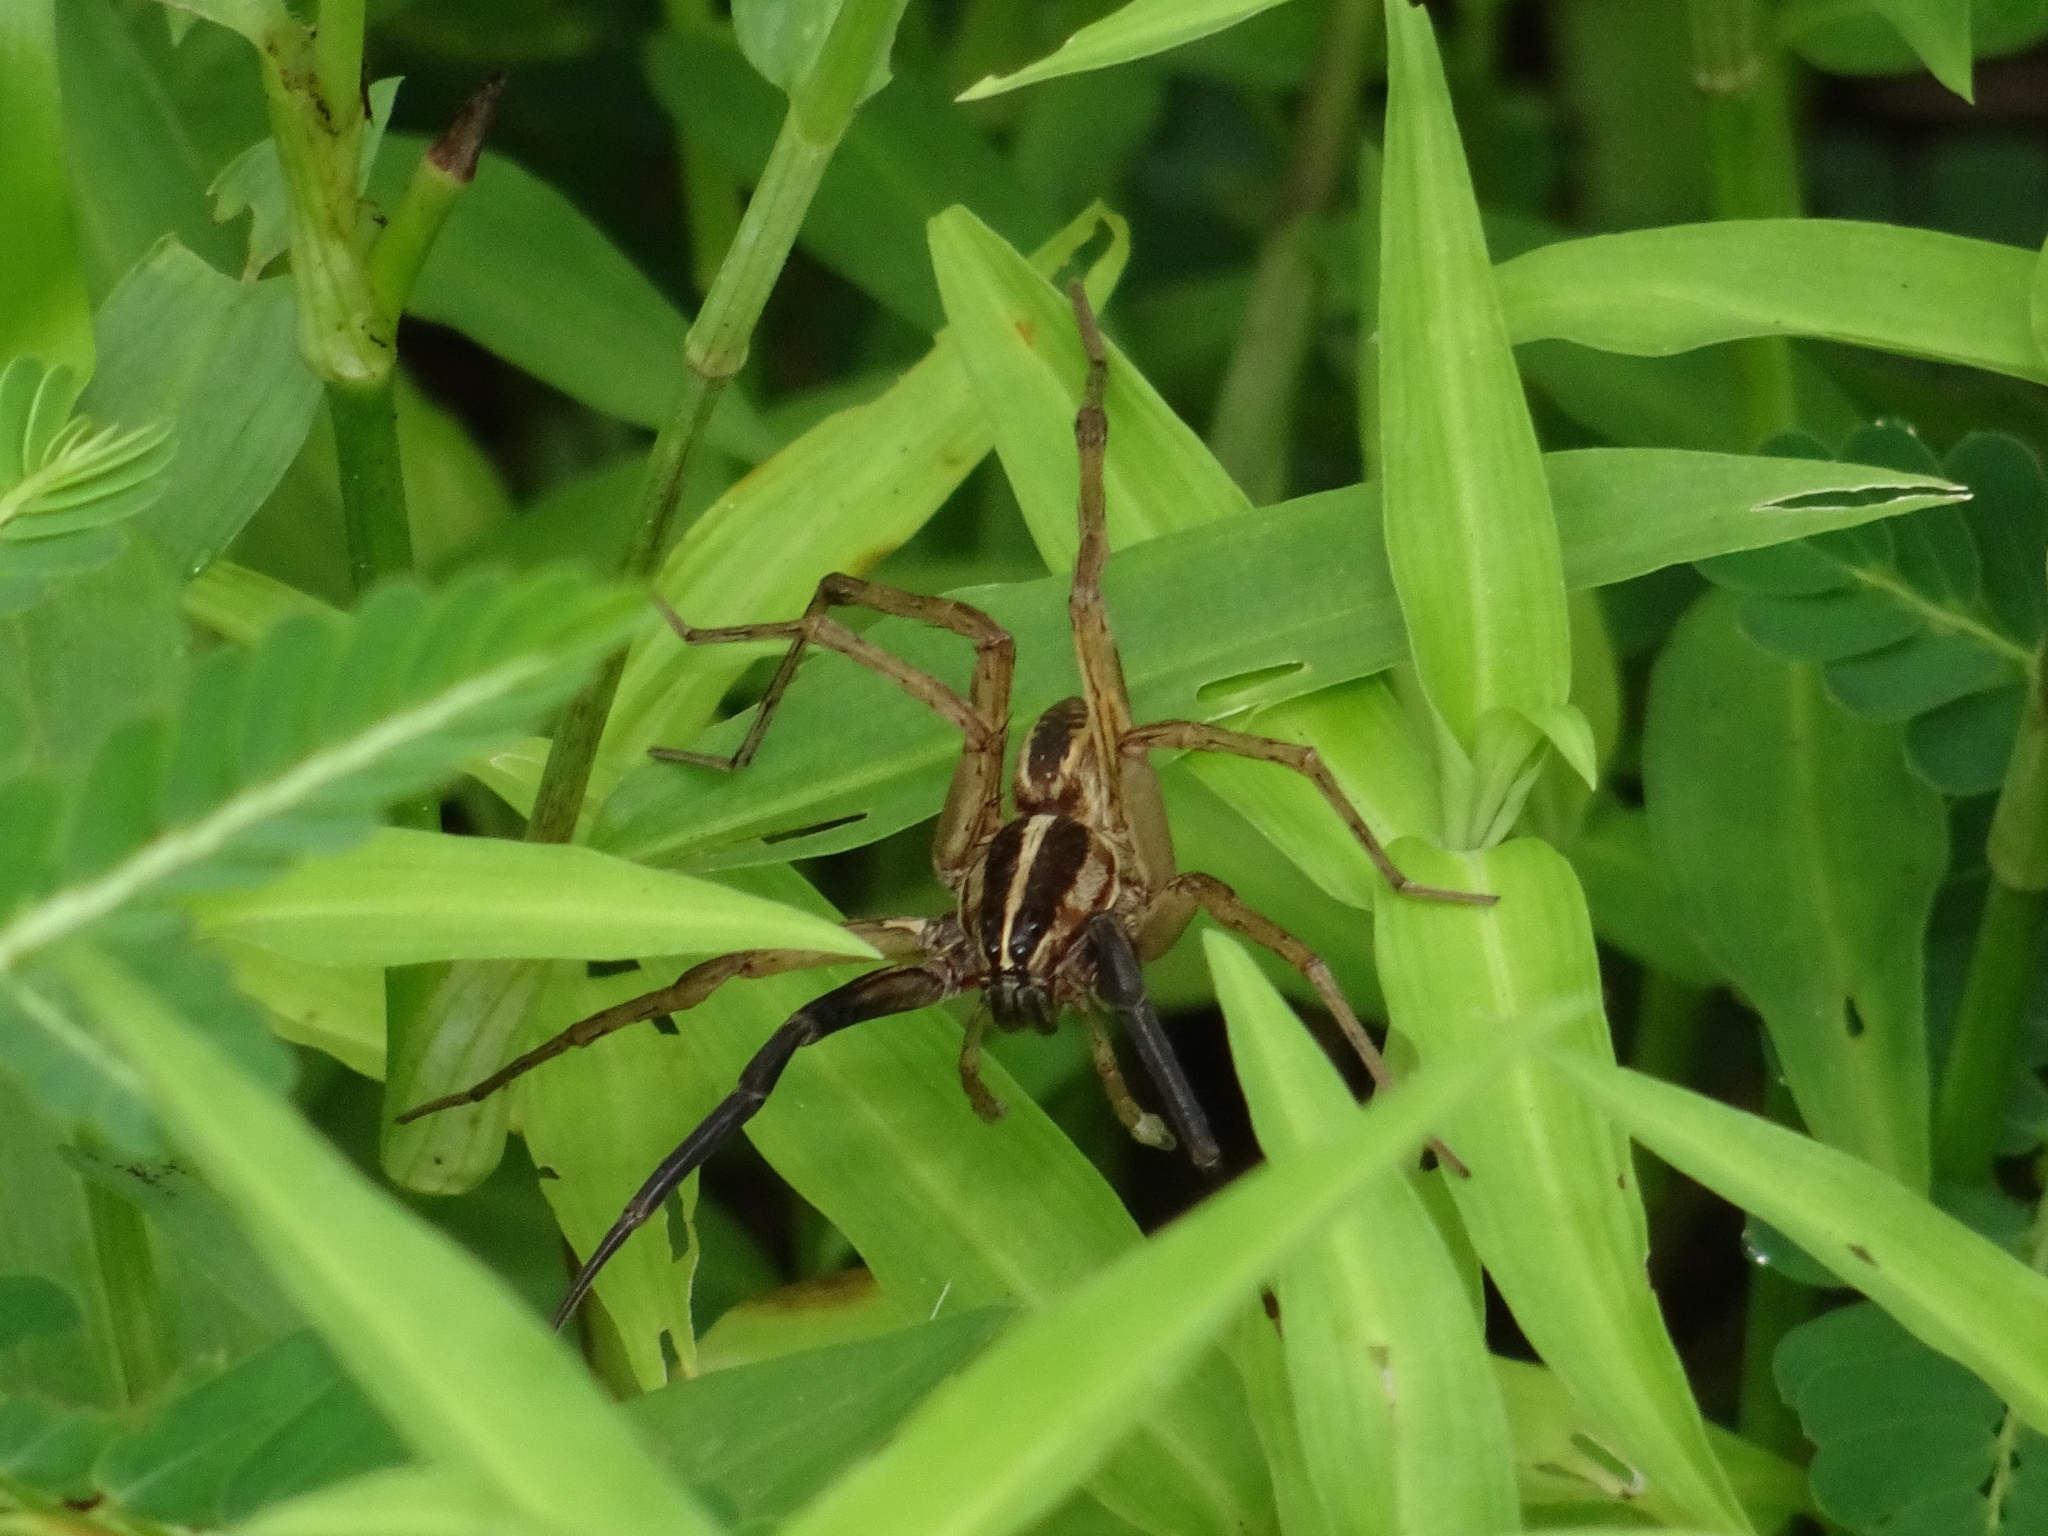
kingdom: Animalia
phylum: Arthropoda
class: Arachnida
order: Araneae
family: Lycosidae
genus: Rabidosa
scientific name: Rabidosa rabida
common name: Rabid wolf spider
